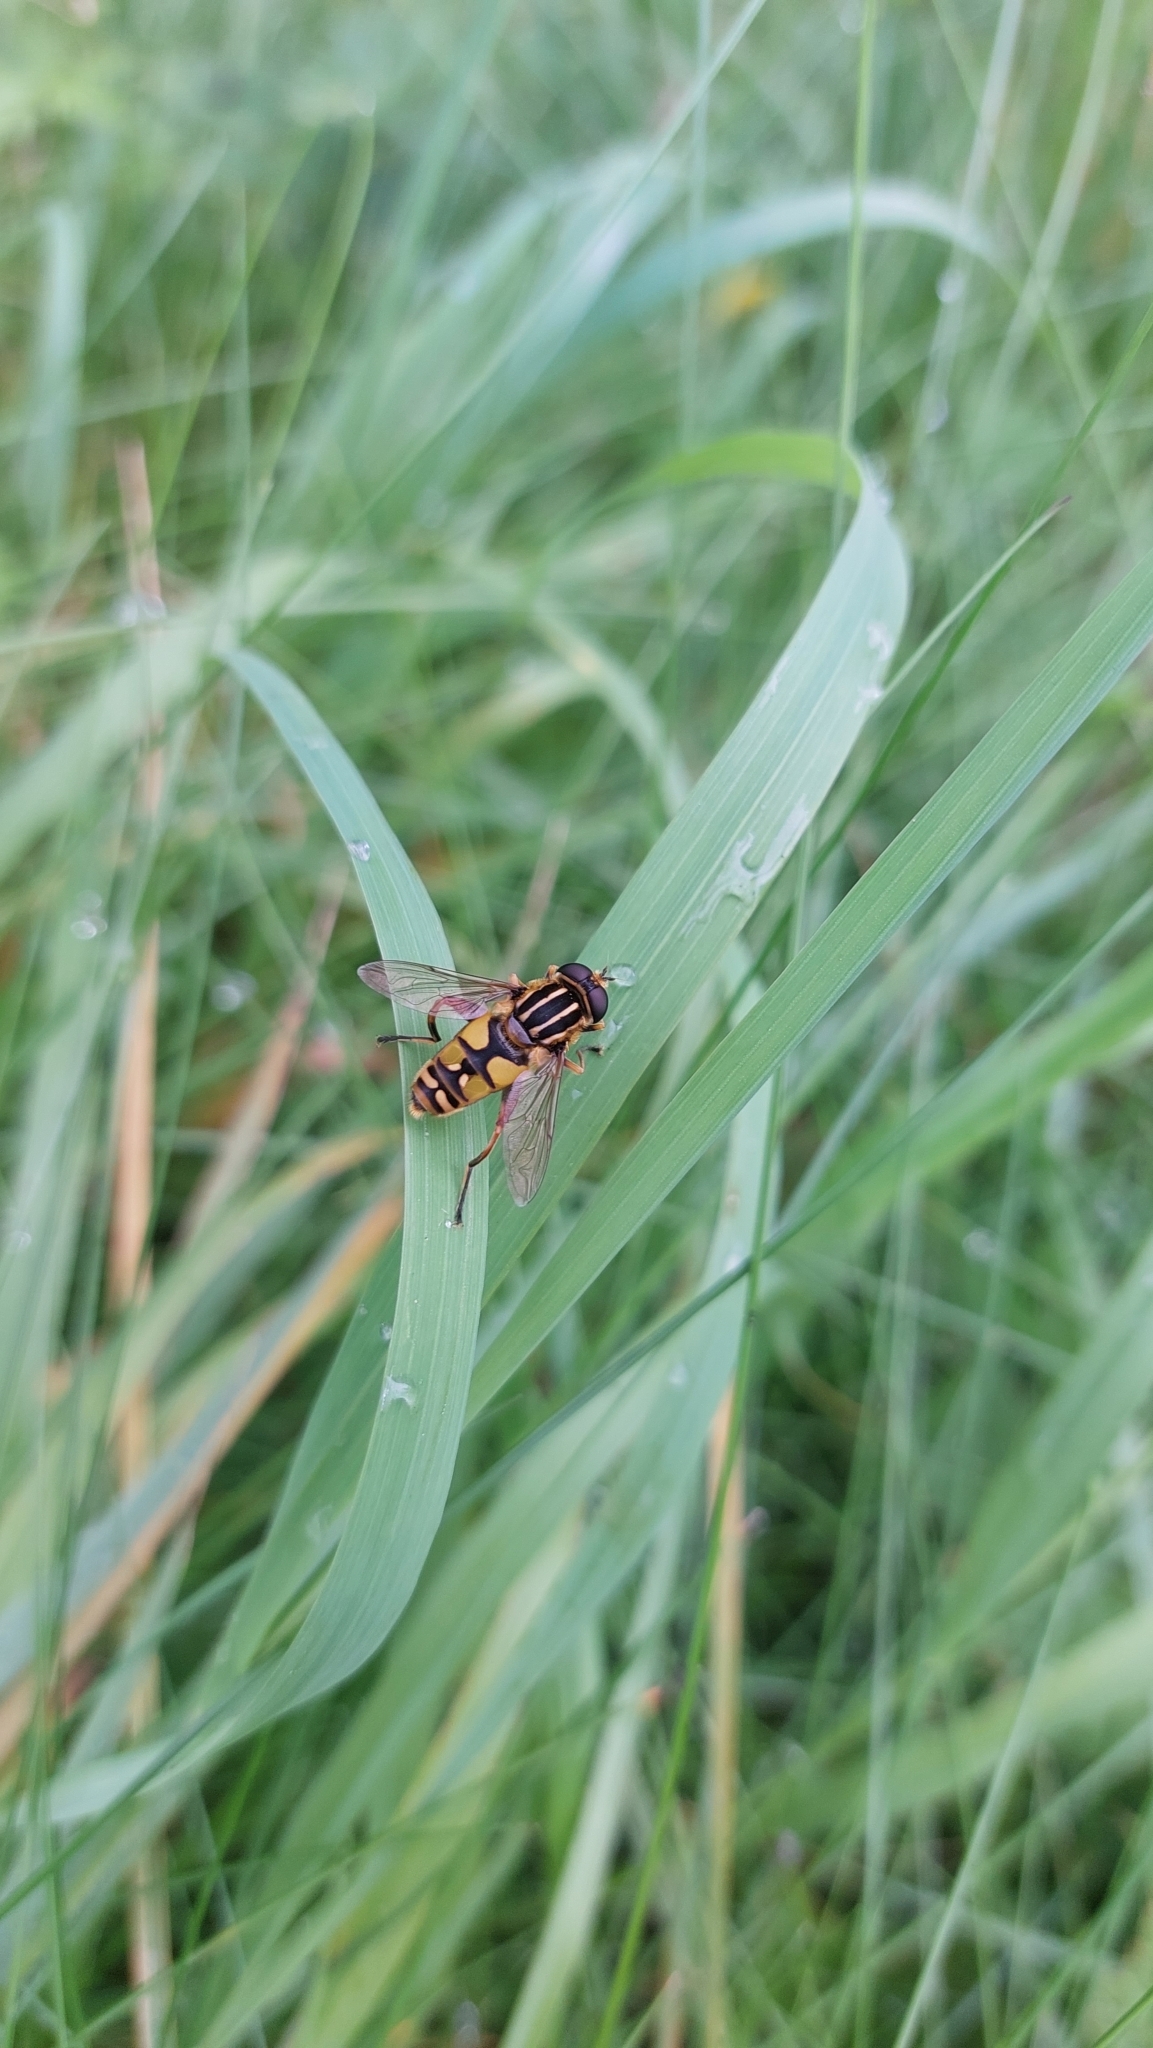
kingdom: Animalia
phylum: Arthropoda
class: Insecta
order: Diptera
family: Syrphidae
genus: Helophilus
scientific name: Helophilus pendulus
